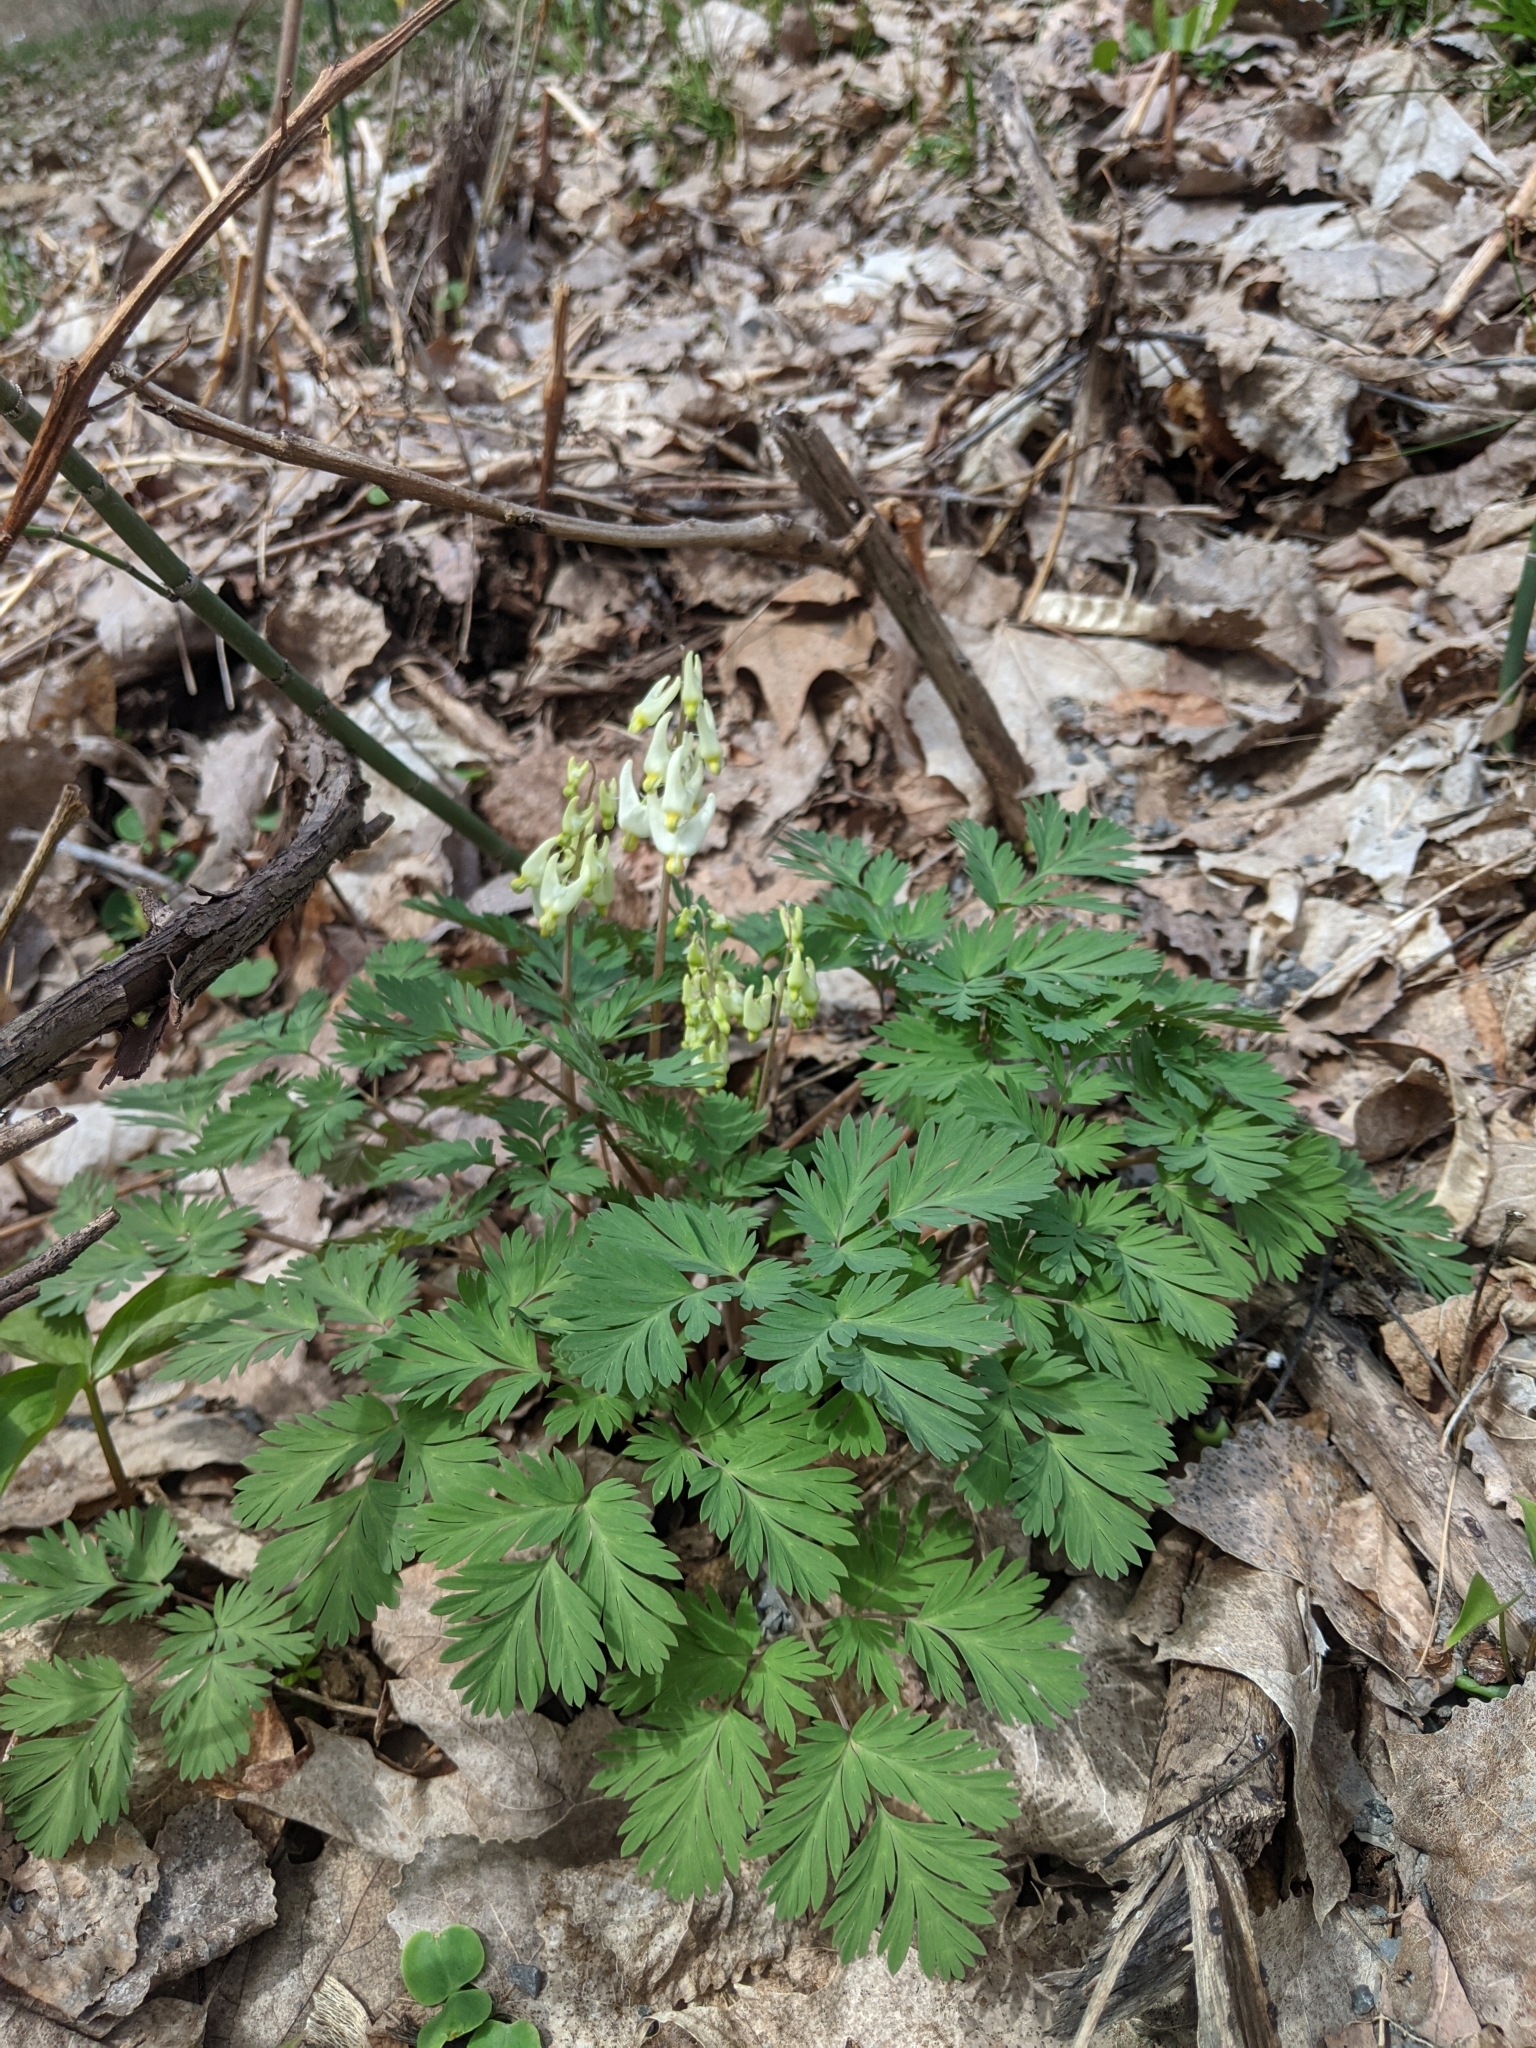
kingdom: Plantae
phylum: Tracheophyta
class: Magnoliopsida
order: Ranunculales
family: Papaveraceae
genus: Dicentra
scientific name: Dicentra cucullaria
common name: Dutchman's breeches
